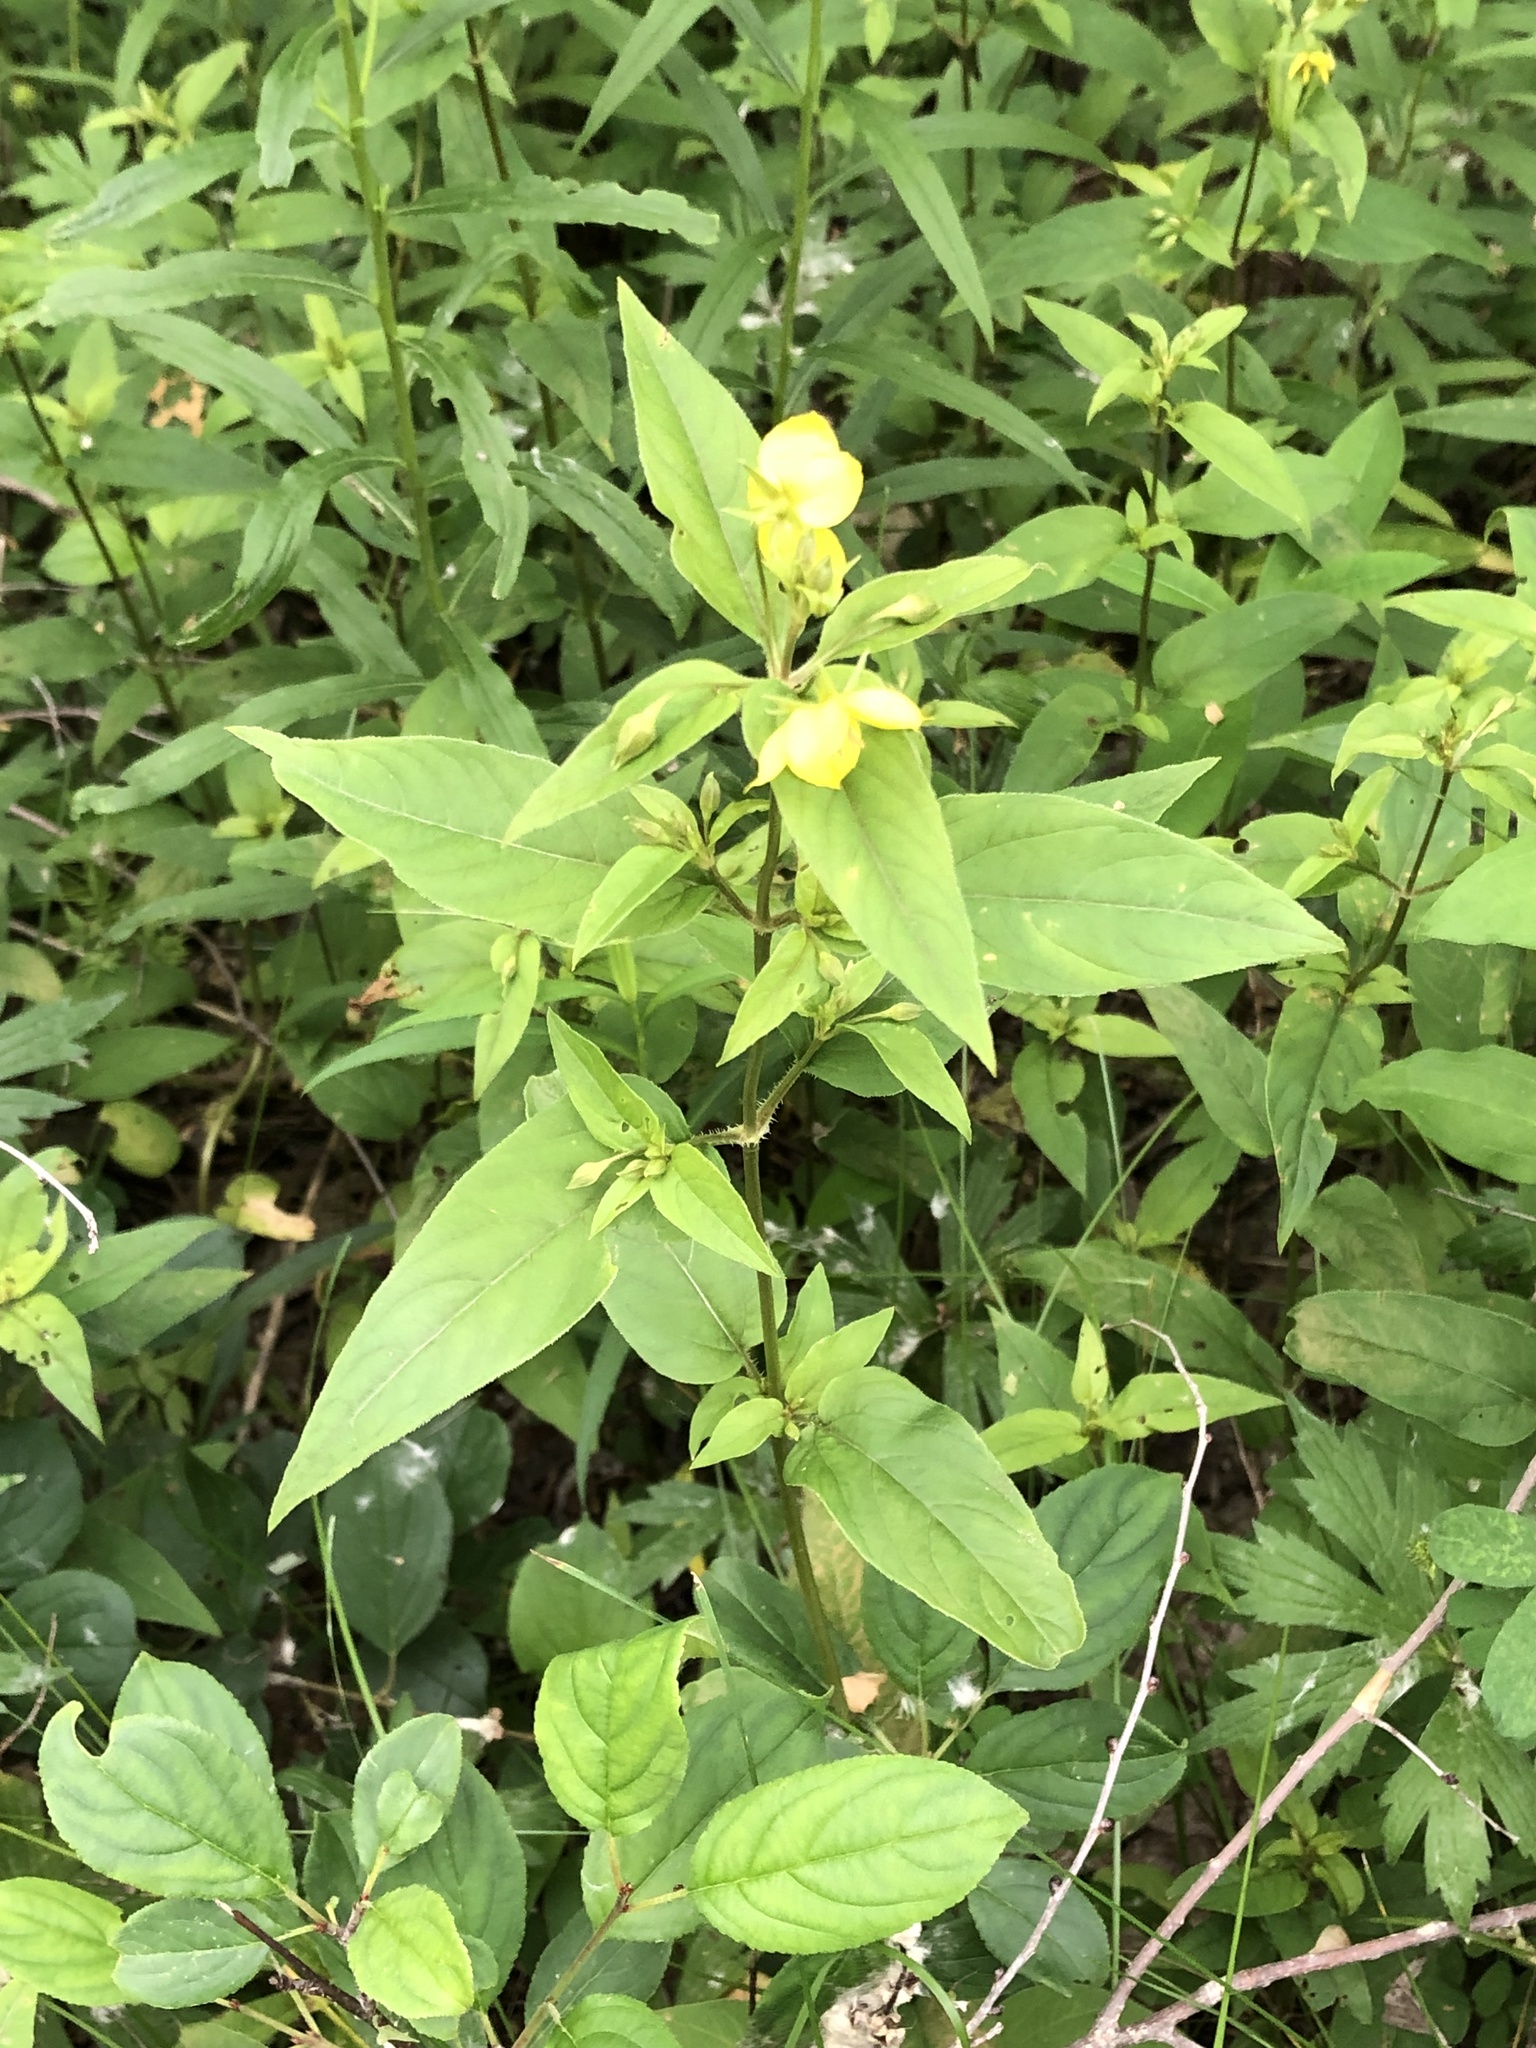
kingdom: Plantae
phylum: Tracheophyta
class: Magnoliopsida
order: Ericales
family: Primulaceae
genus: Lysimachia
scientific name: Lysimachia ciliata
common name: Fringed loosestrife
